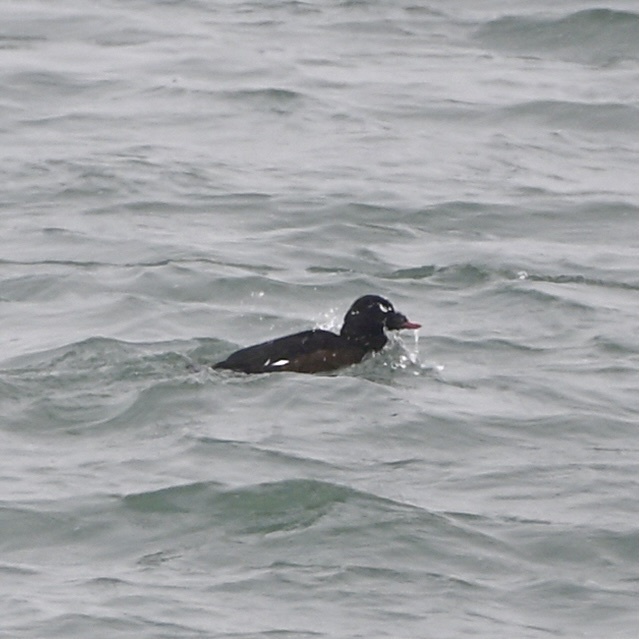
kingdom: Animalia
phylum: Chordata
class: Aves
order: Anseriformes
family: Anatidae
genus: Melanitta
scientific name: Melanitta deglandi
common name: White-winged scoter
